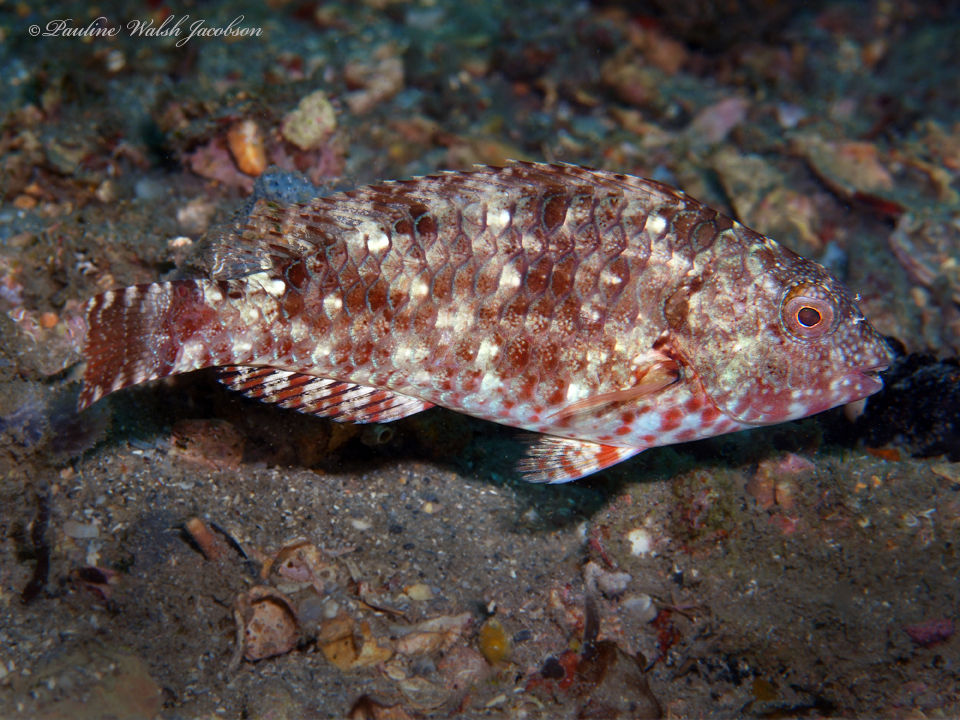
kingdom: Animalia
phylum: Chordata
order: Perciformes
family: Scaridae
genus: Sparisoma
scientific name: Sparisoma chrysopterum
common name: Redtail parrotfish
